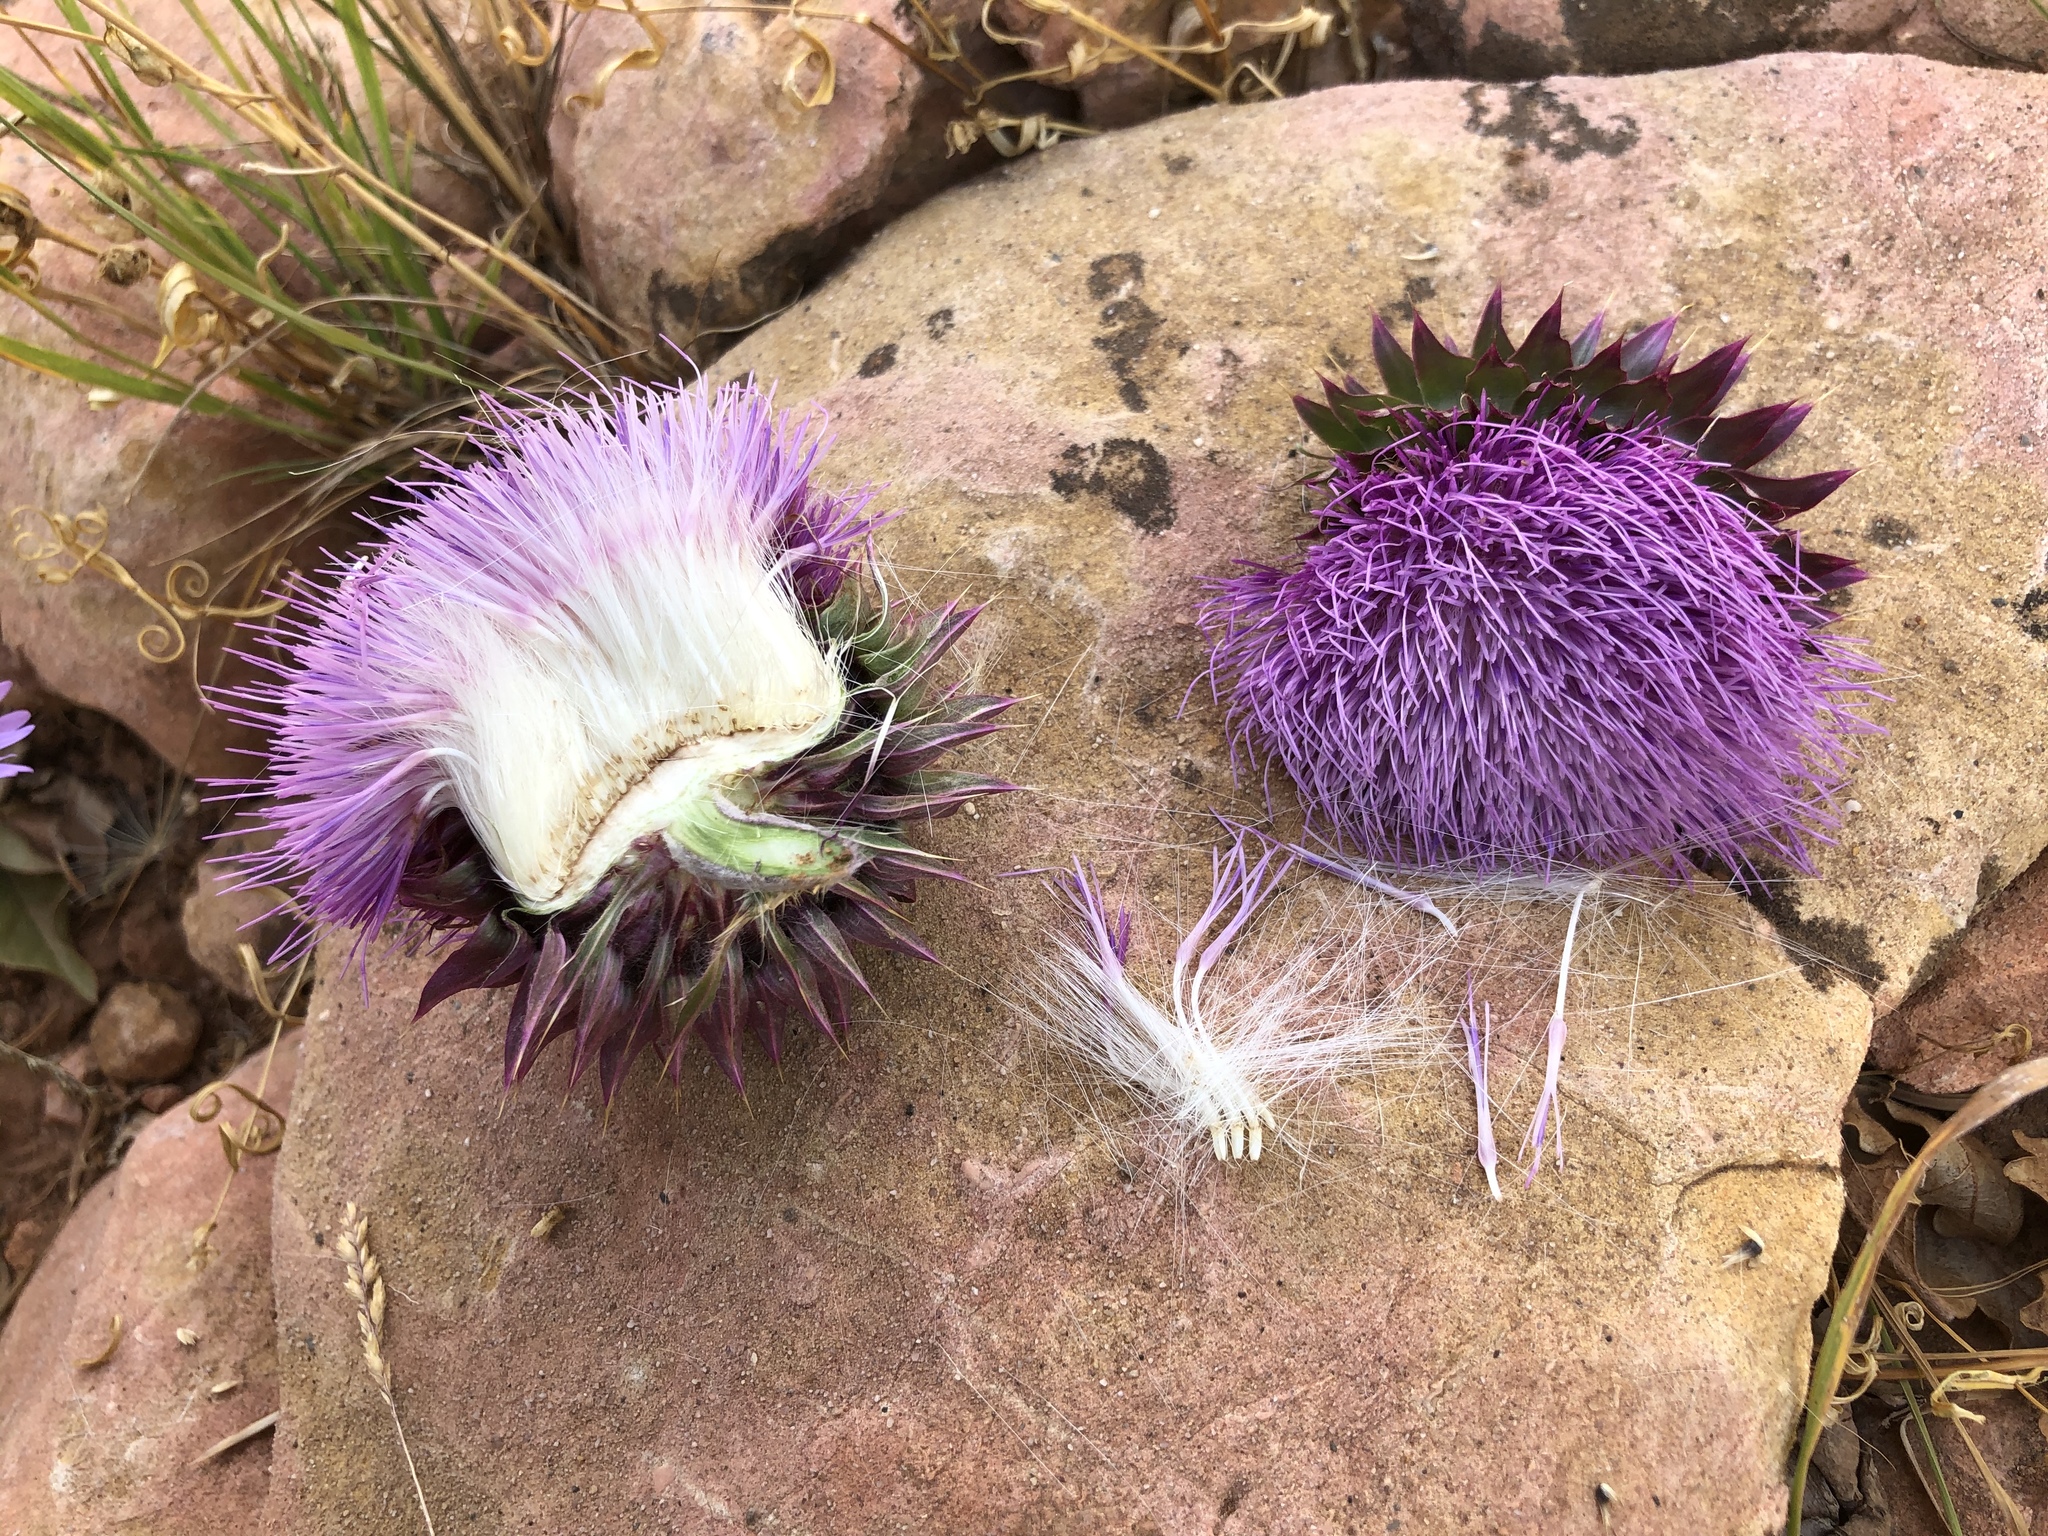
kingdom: Plantae
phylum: Tracheophyta
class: Magnoliopsida
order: Asterales
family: Asteraceae
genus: Carduus
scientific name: Carduus nutans
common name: Musk thistle
